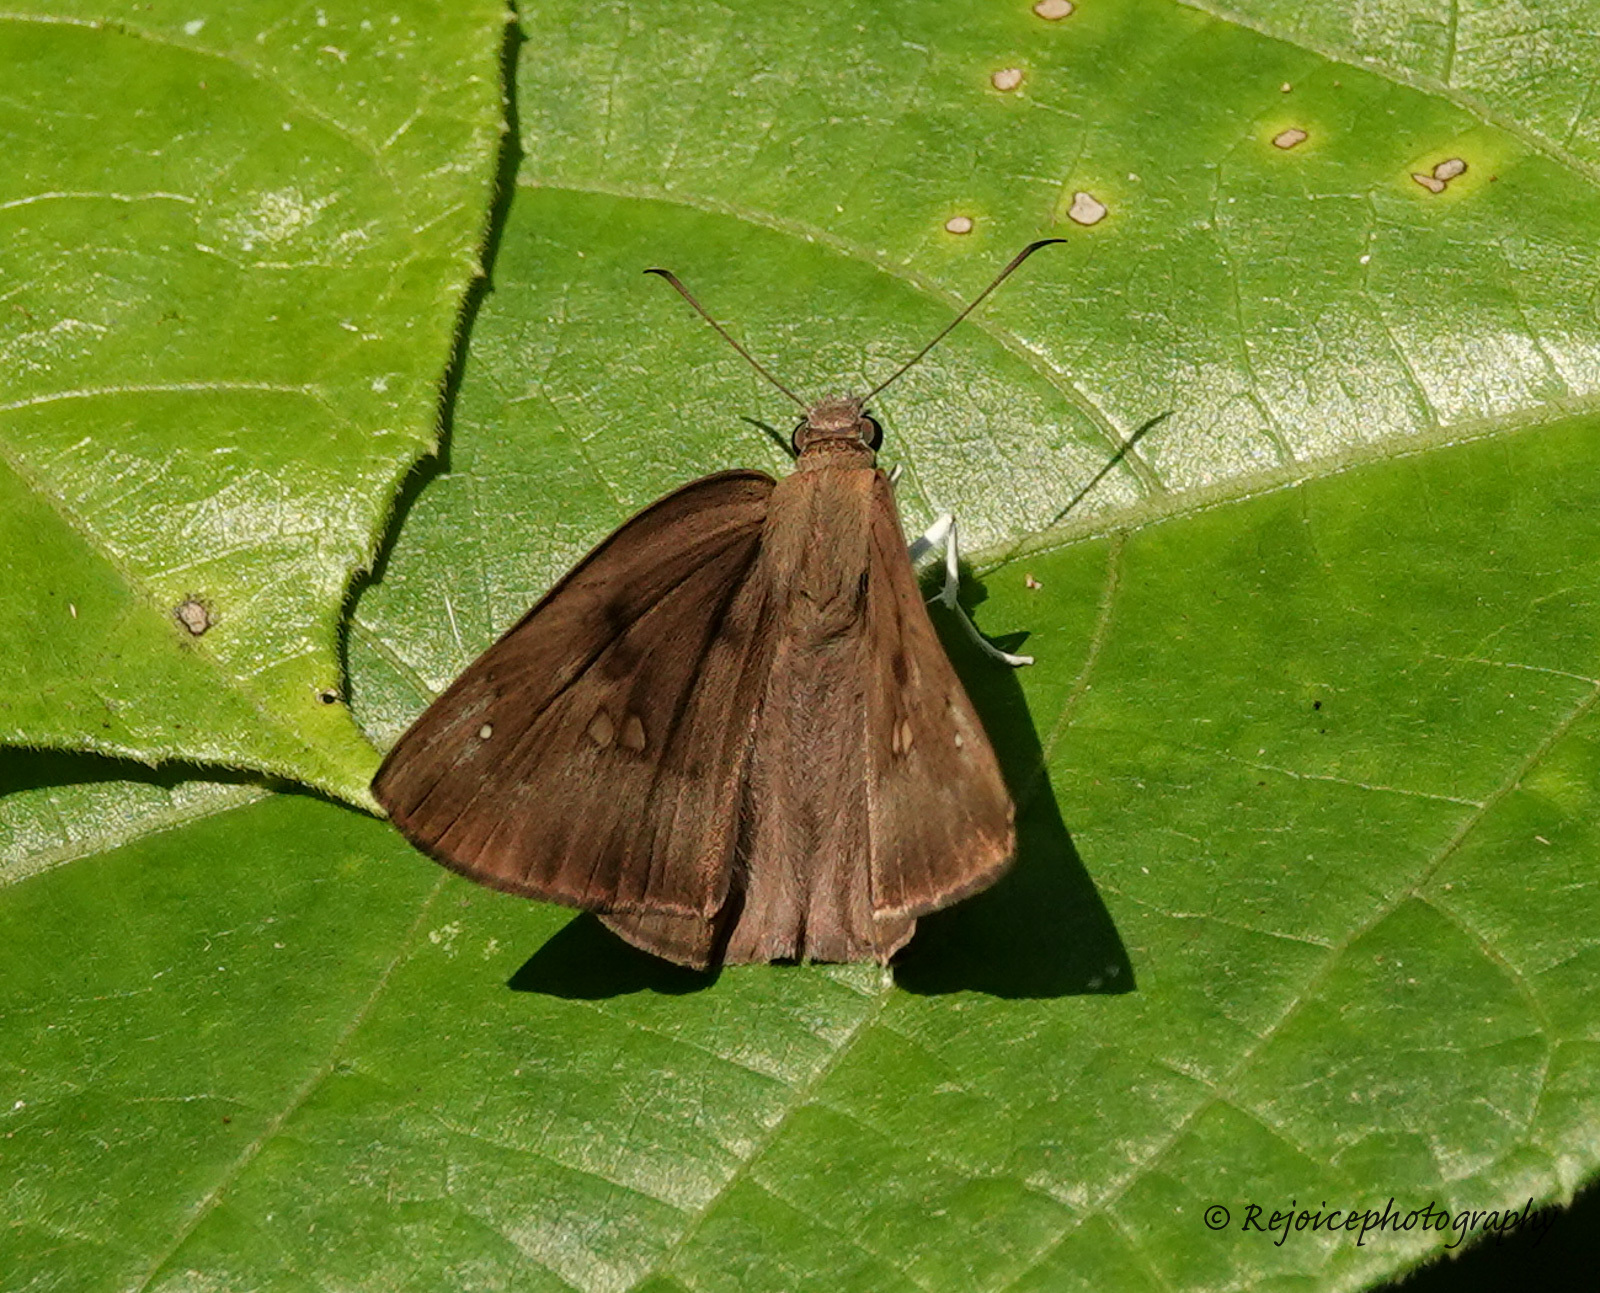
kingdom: Animalia
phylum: Arthropoda
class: Insecta
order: Lepidoptera
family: Hesperiidae
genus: Tagiades
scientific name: Tagiades japetus
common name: Pied flat
